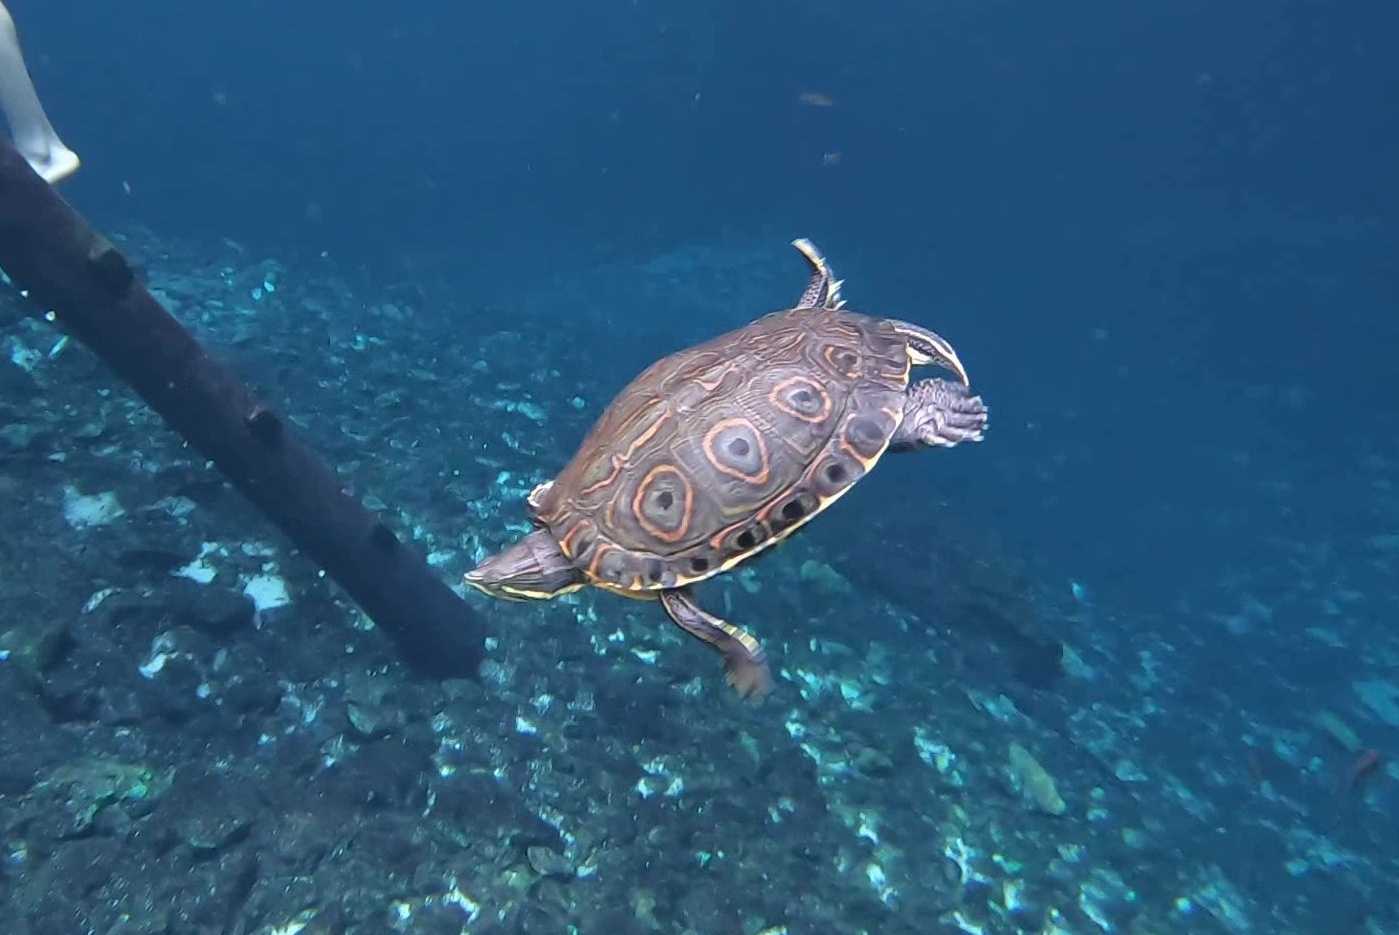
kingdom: Animalia
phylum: Chordata
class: Testudines
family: Emydidae
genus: Trachemys
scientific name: Trachemys venusta
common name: Mesoamerican slider
